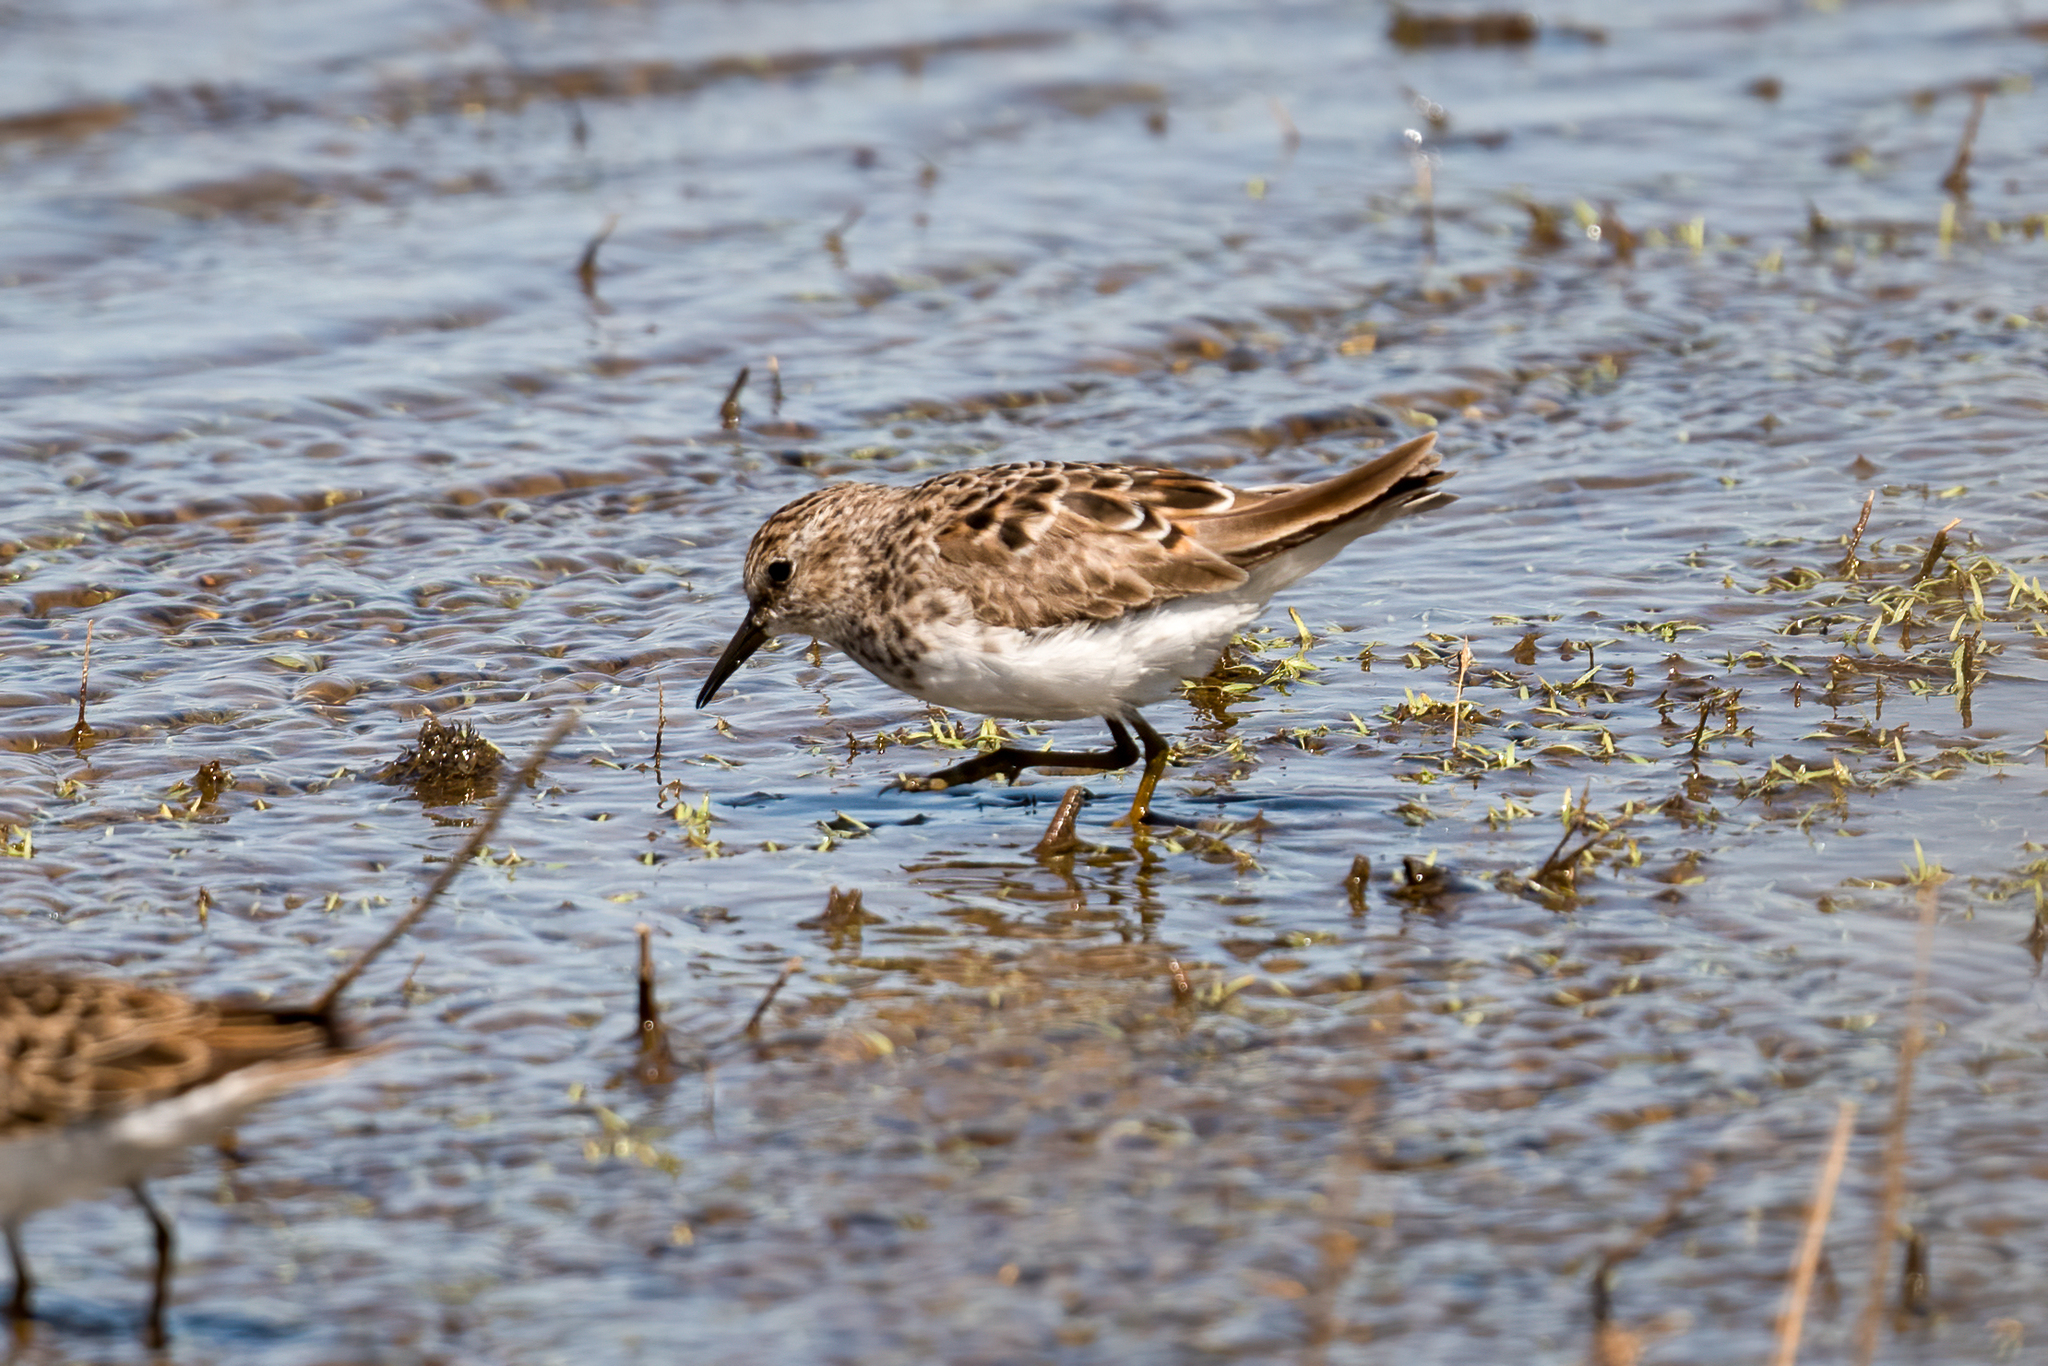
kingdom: Animalia
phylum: Chordata
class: Aves
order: Charadriiformes
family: Scolopacidae
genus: Calidris
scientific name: Calidris minutilla
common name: Least sandpiper
